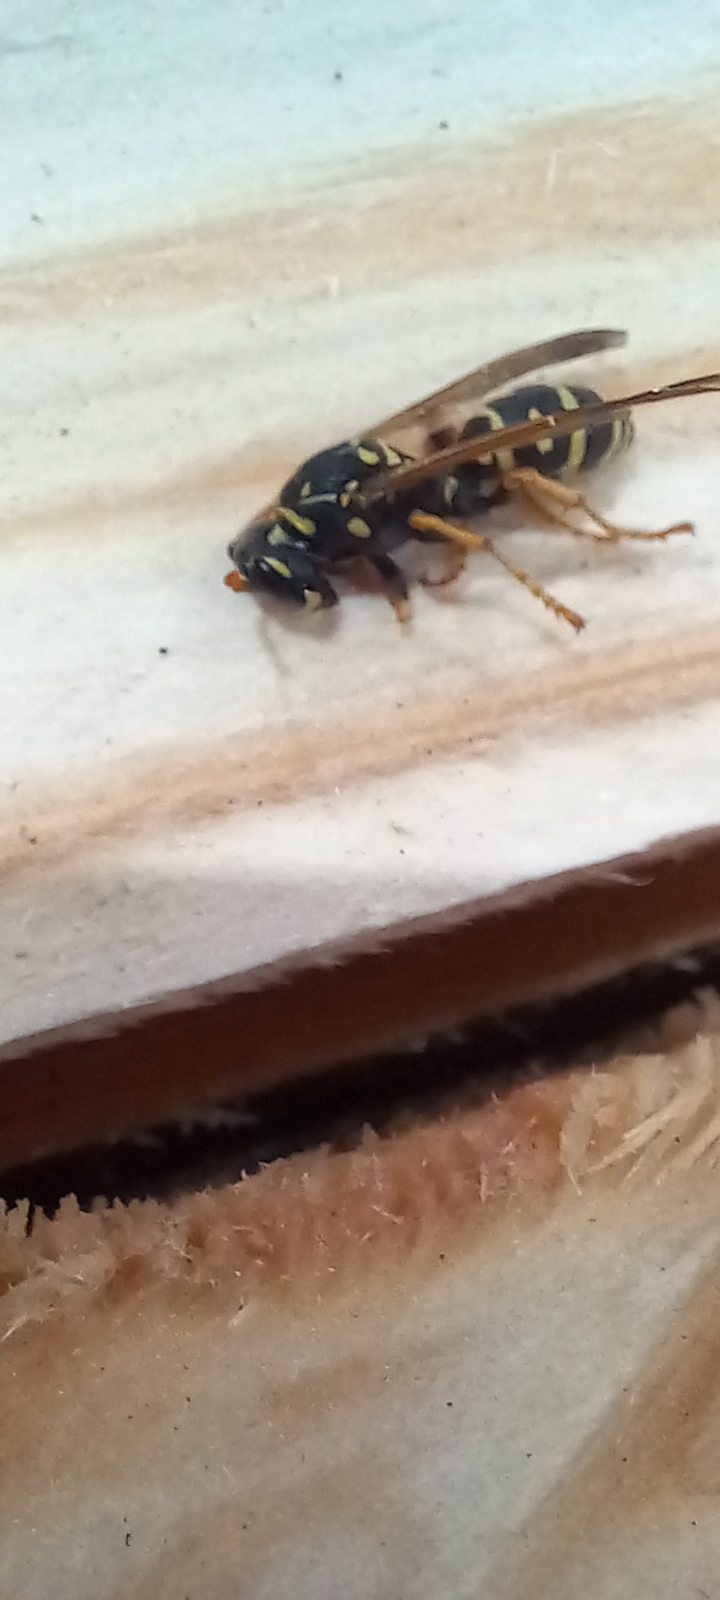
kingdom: Animalia
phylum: Arthropoda
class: Insecta
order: Hymenoptera
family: Eumenidae
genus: Polistes
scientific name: Polistes dominula
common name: Paper wasp
